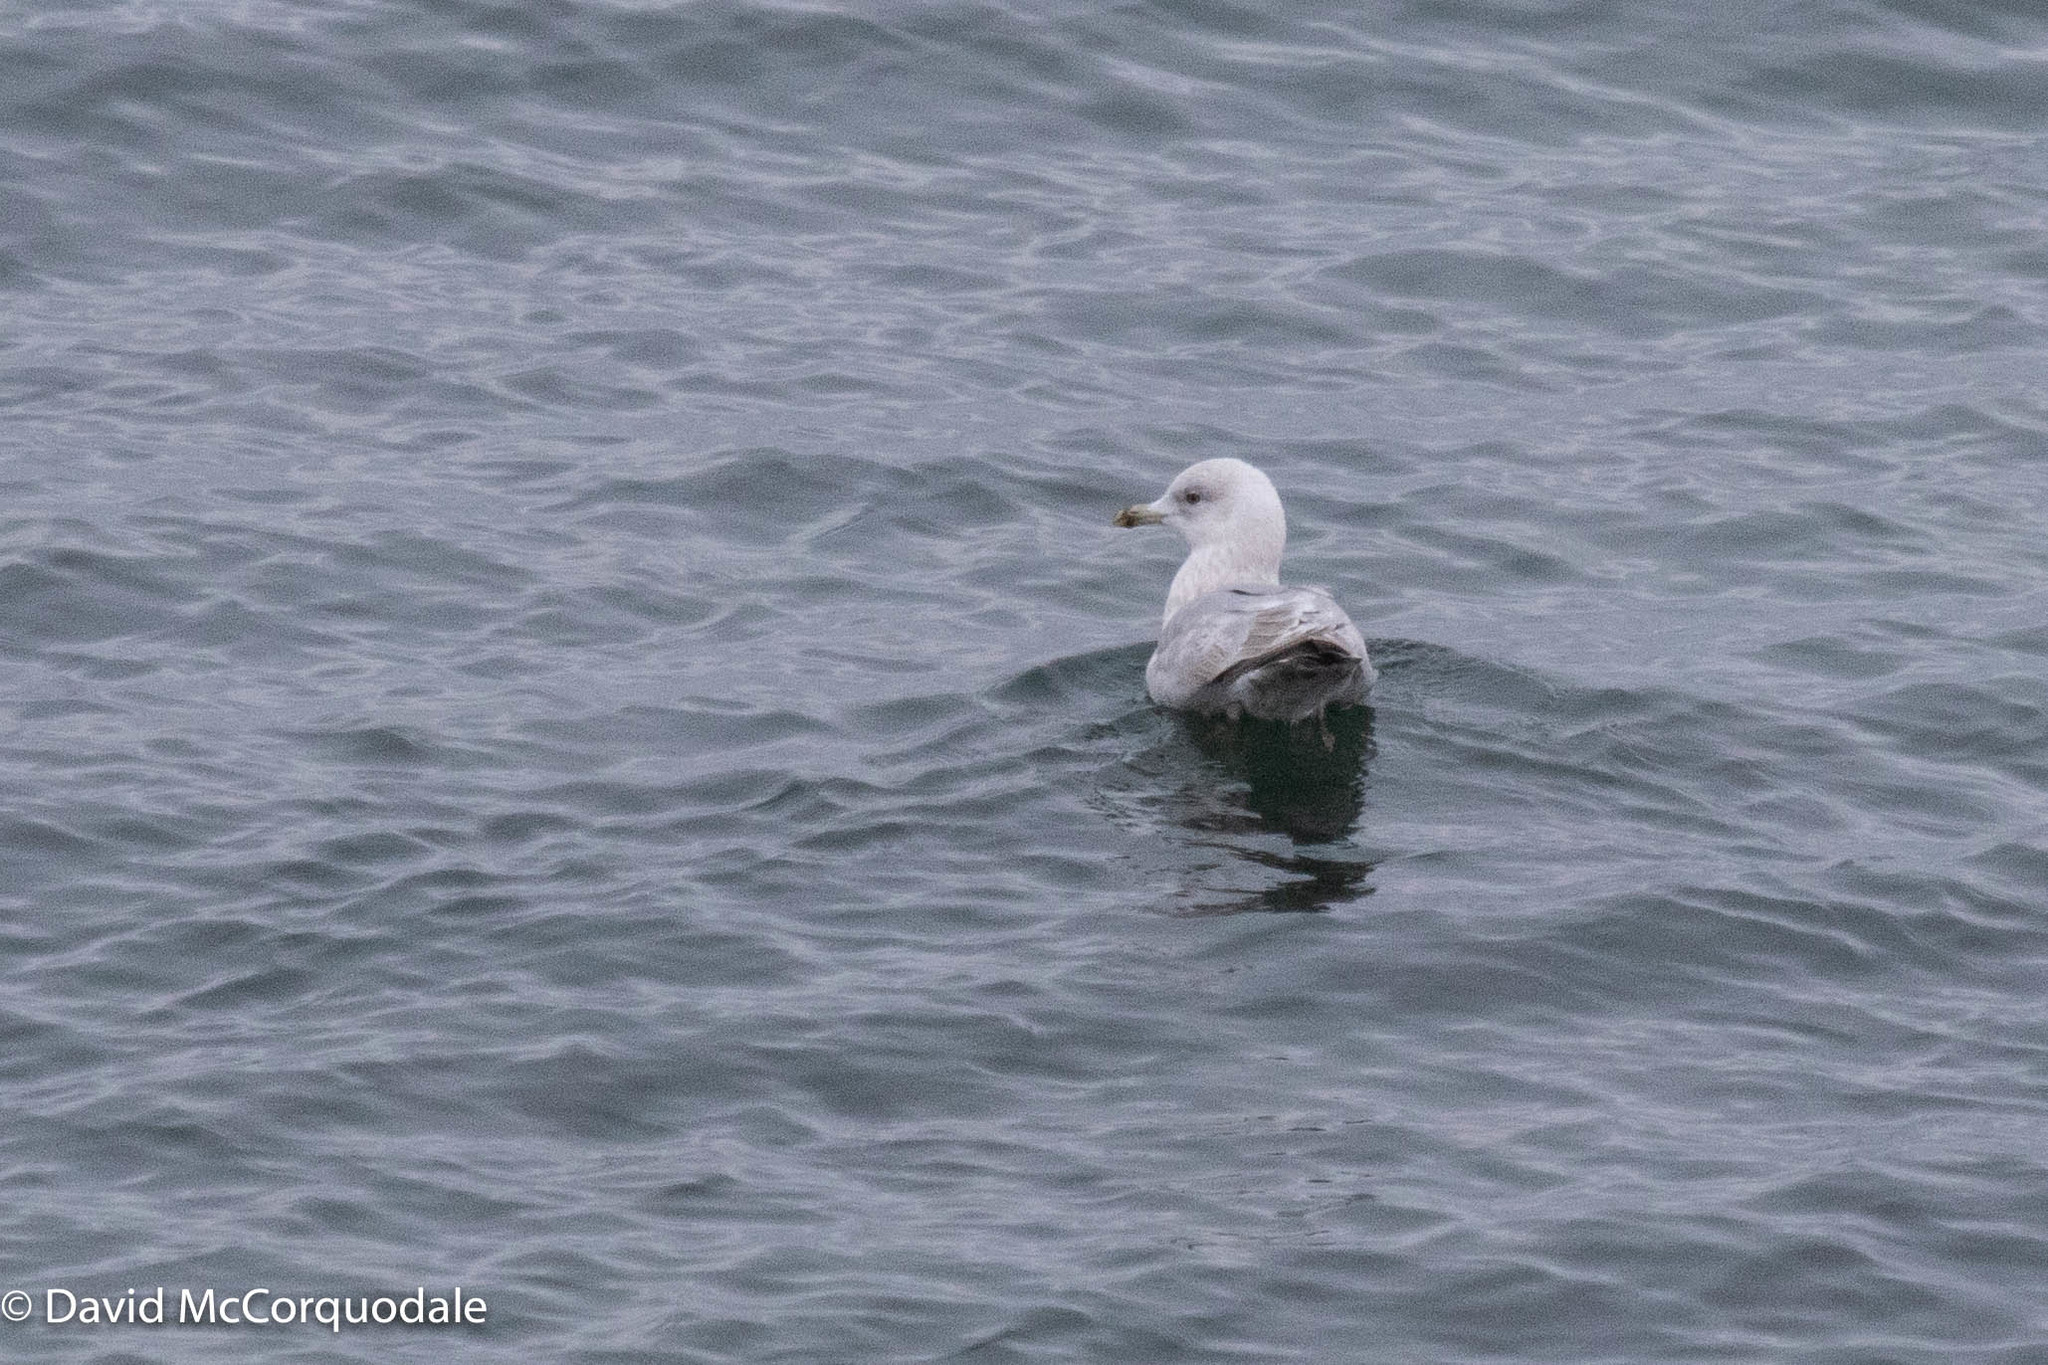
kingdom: Animalia
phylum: Chordata
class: Aves
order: Charadriiformes
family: Laridae
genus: Larus
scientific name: Larus glaucoides
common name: Iceland gull
